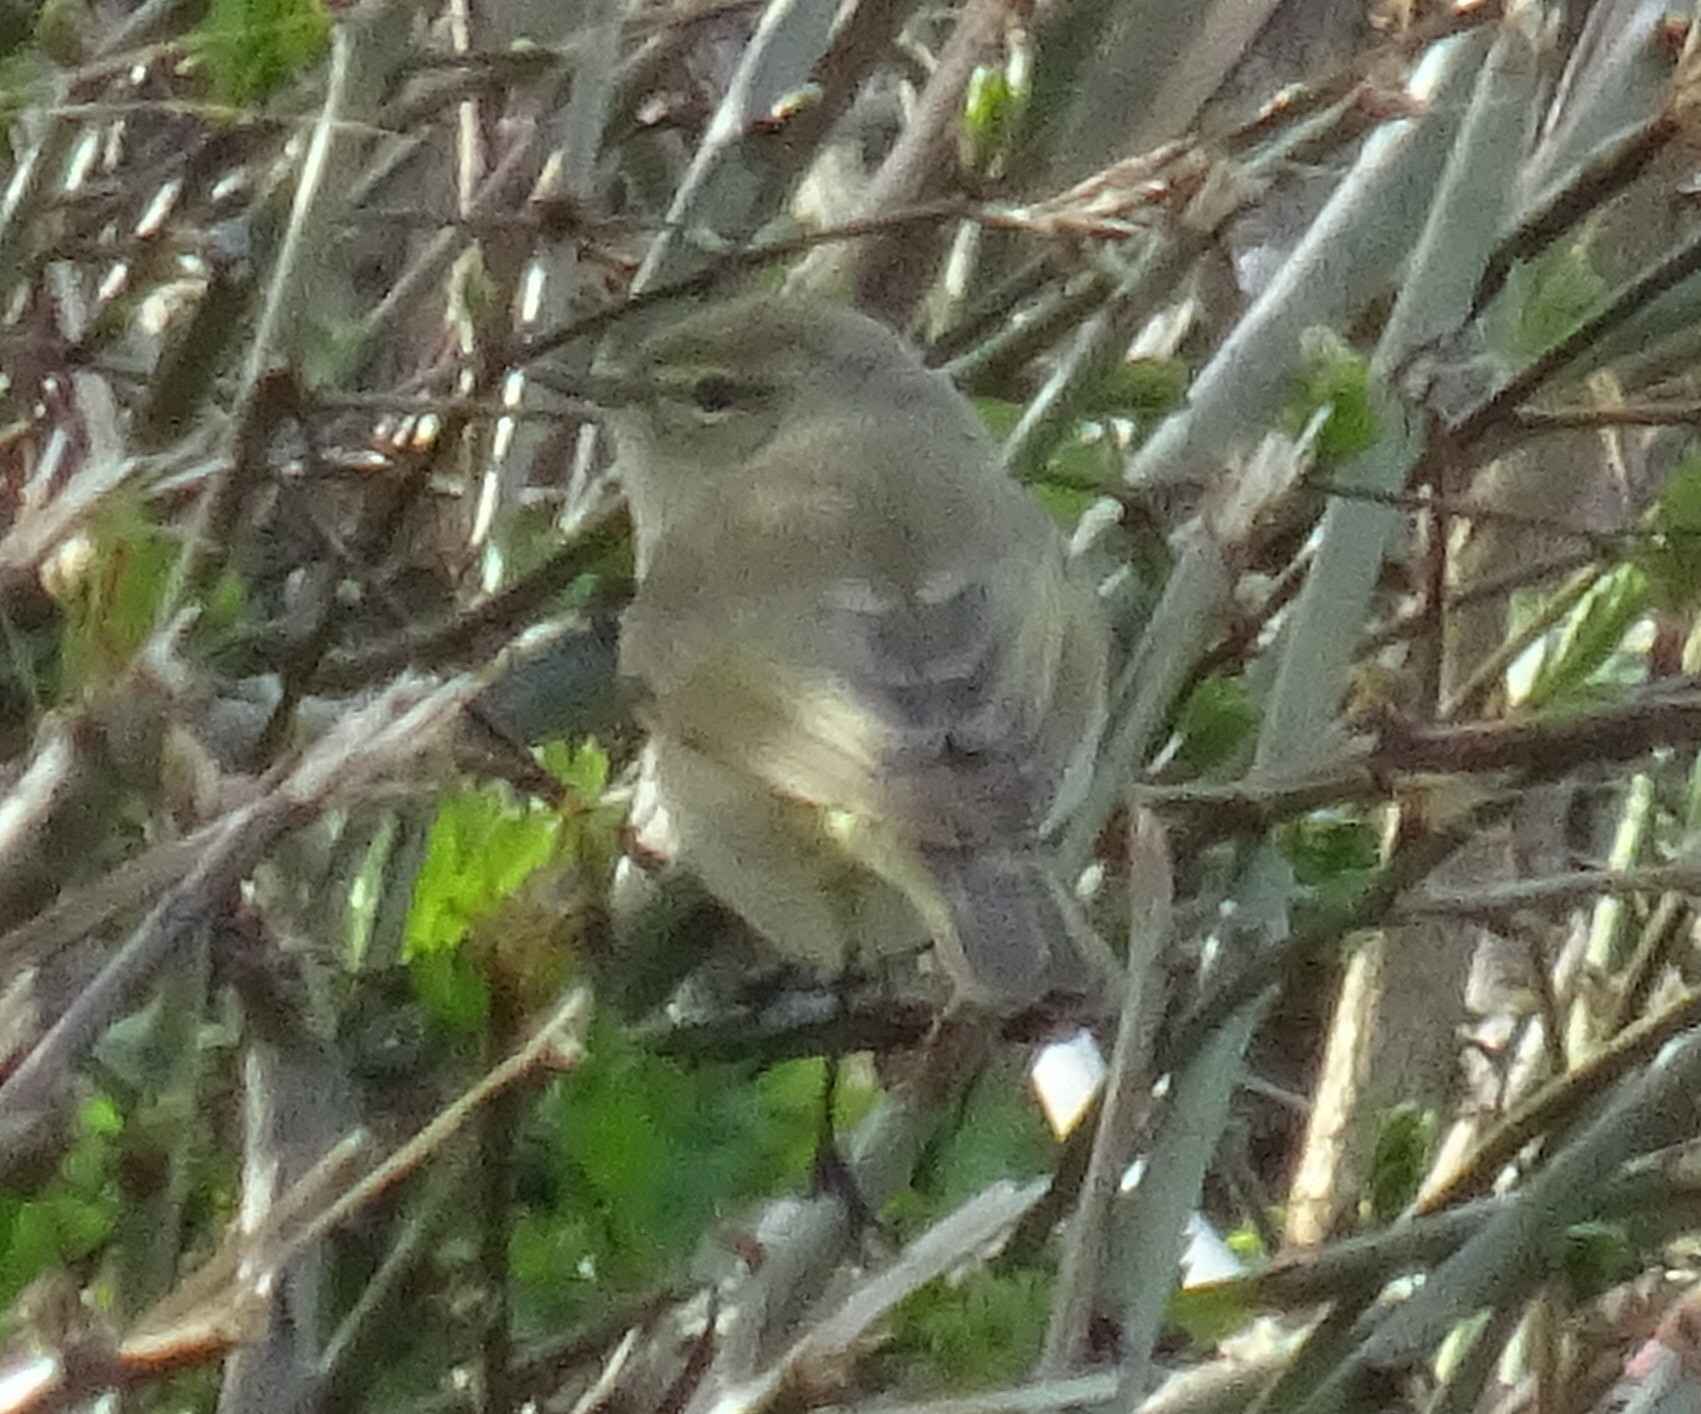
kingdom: Animalia
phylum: Chordata
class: Aves
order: Passeriformes
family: Phylloscopidae
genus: Phylloscopus
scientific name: Phylloscopus collybita
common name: Common chiffchaff
